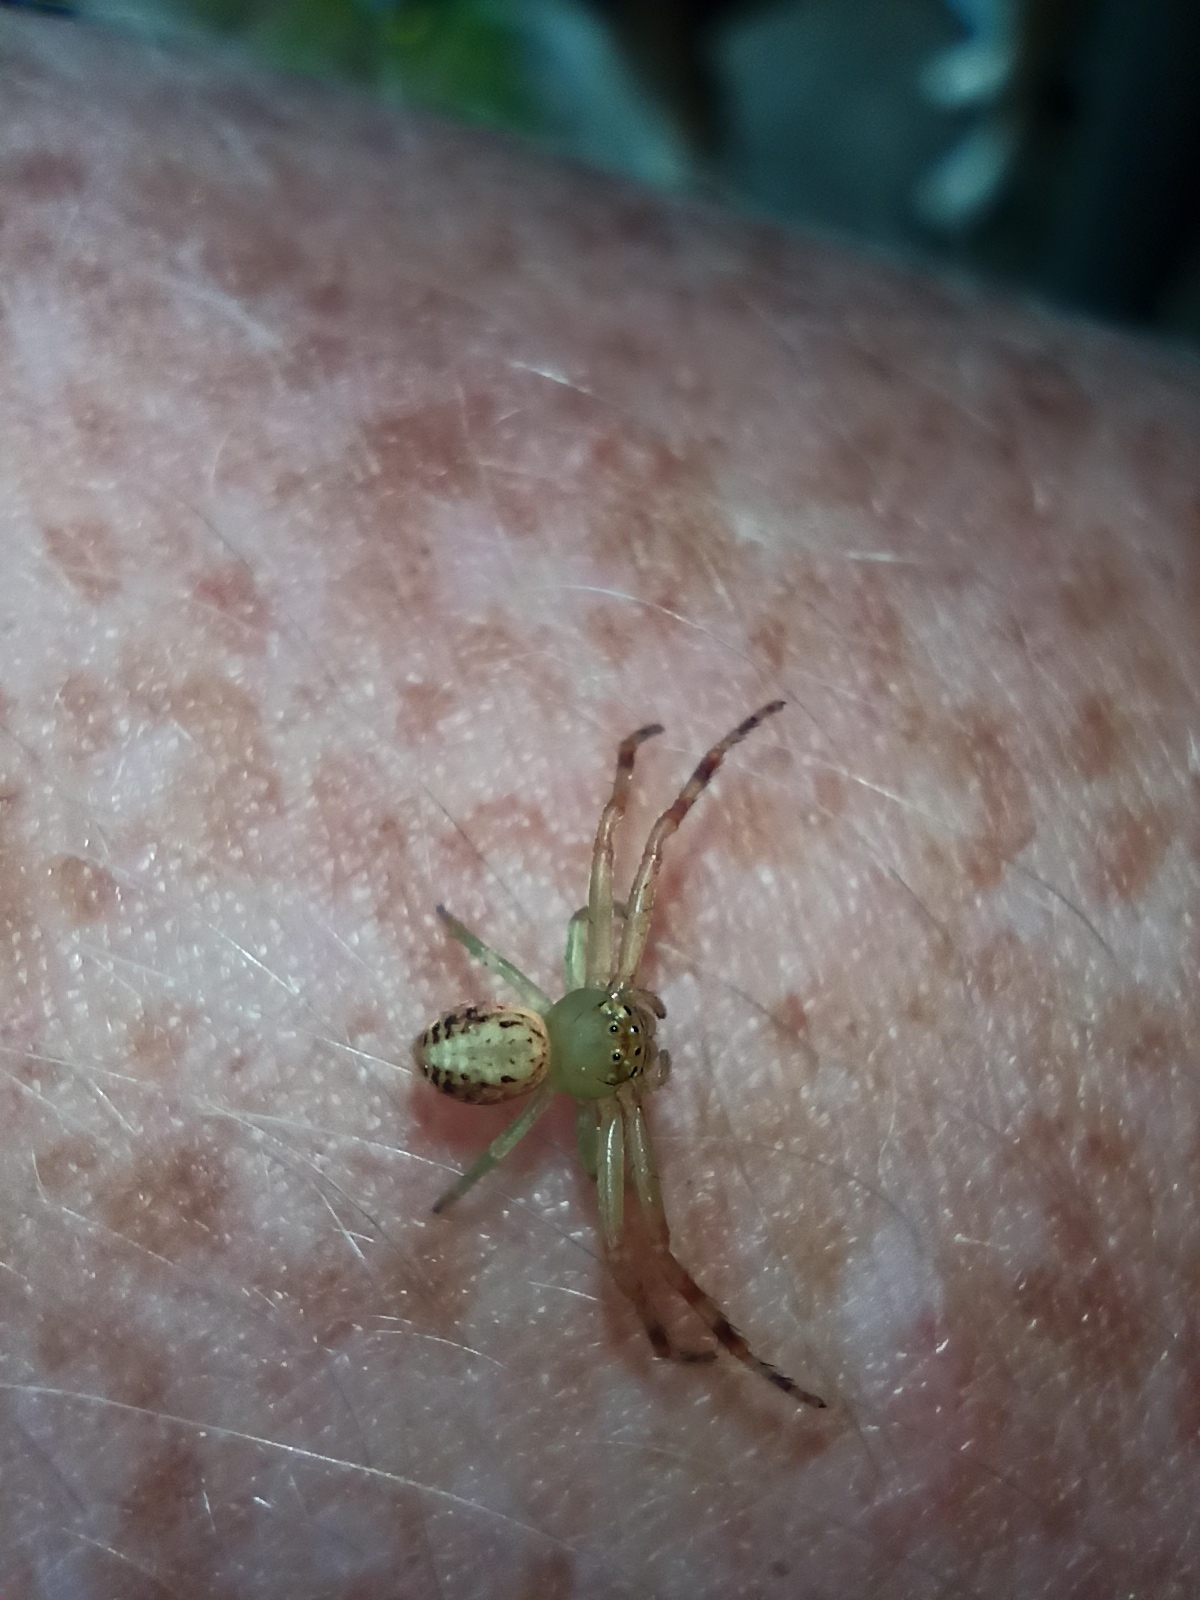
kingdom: Animalia
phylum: Arthropoda
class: Arachnida
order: Araneae
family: Thomisidae
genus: Diaea
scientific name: Diaea ambara
